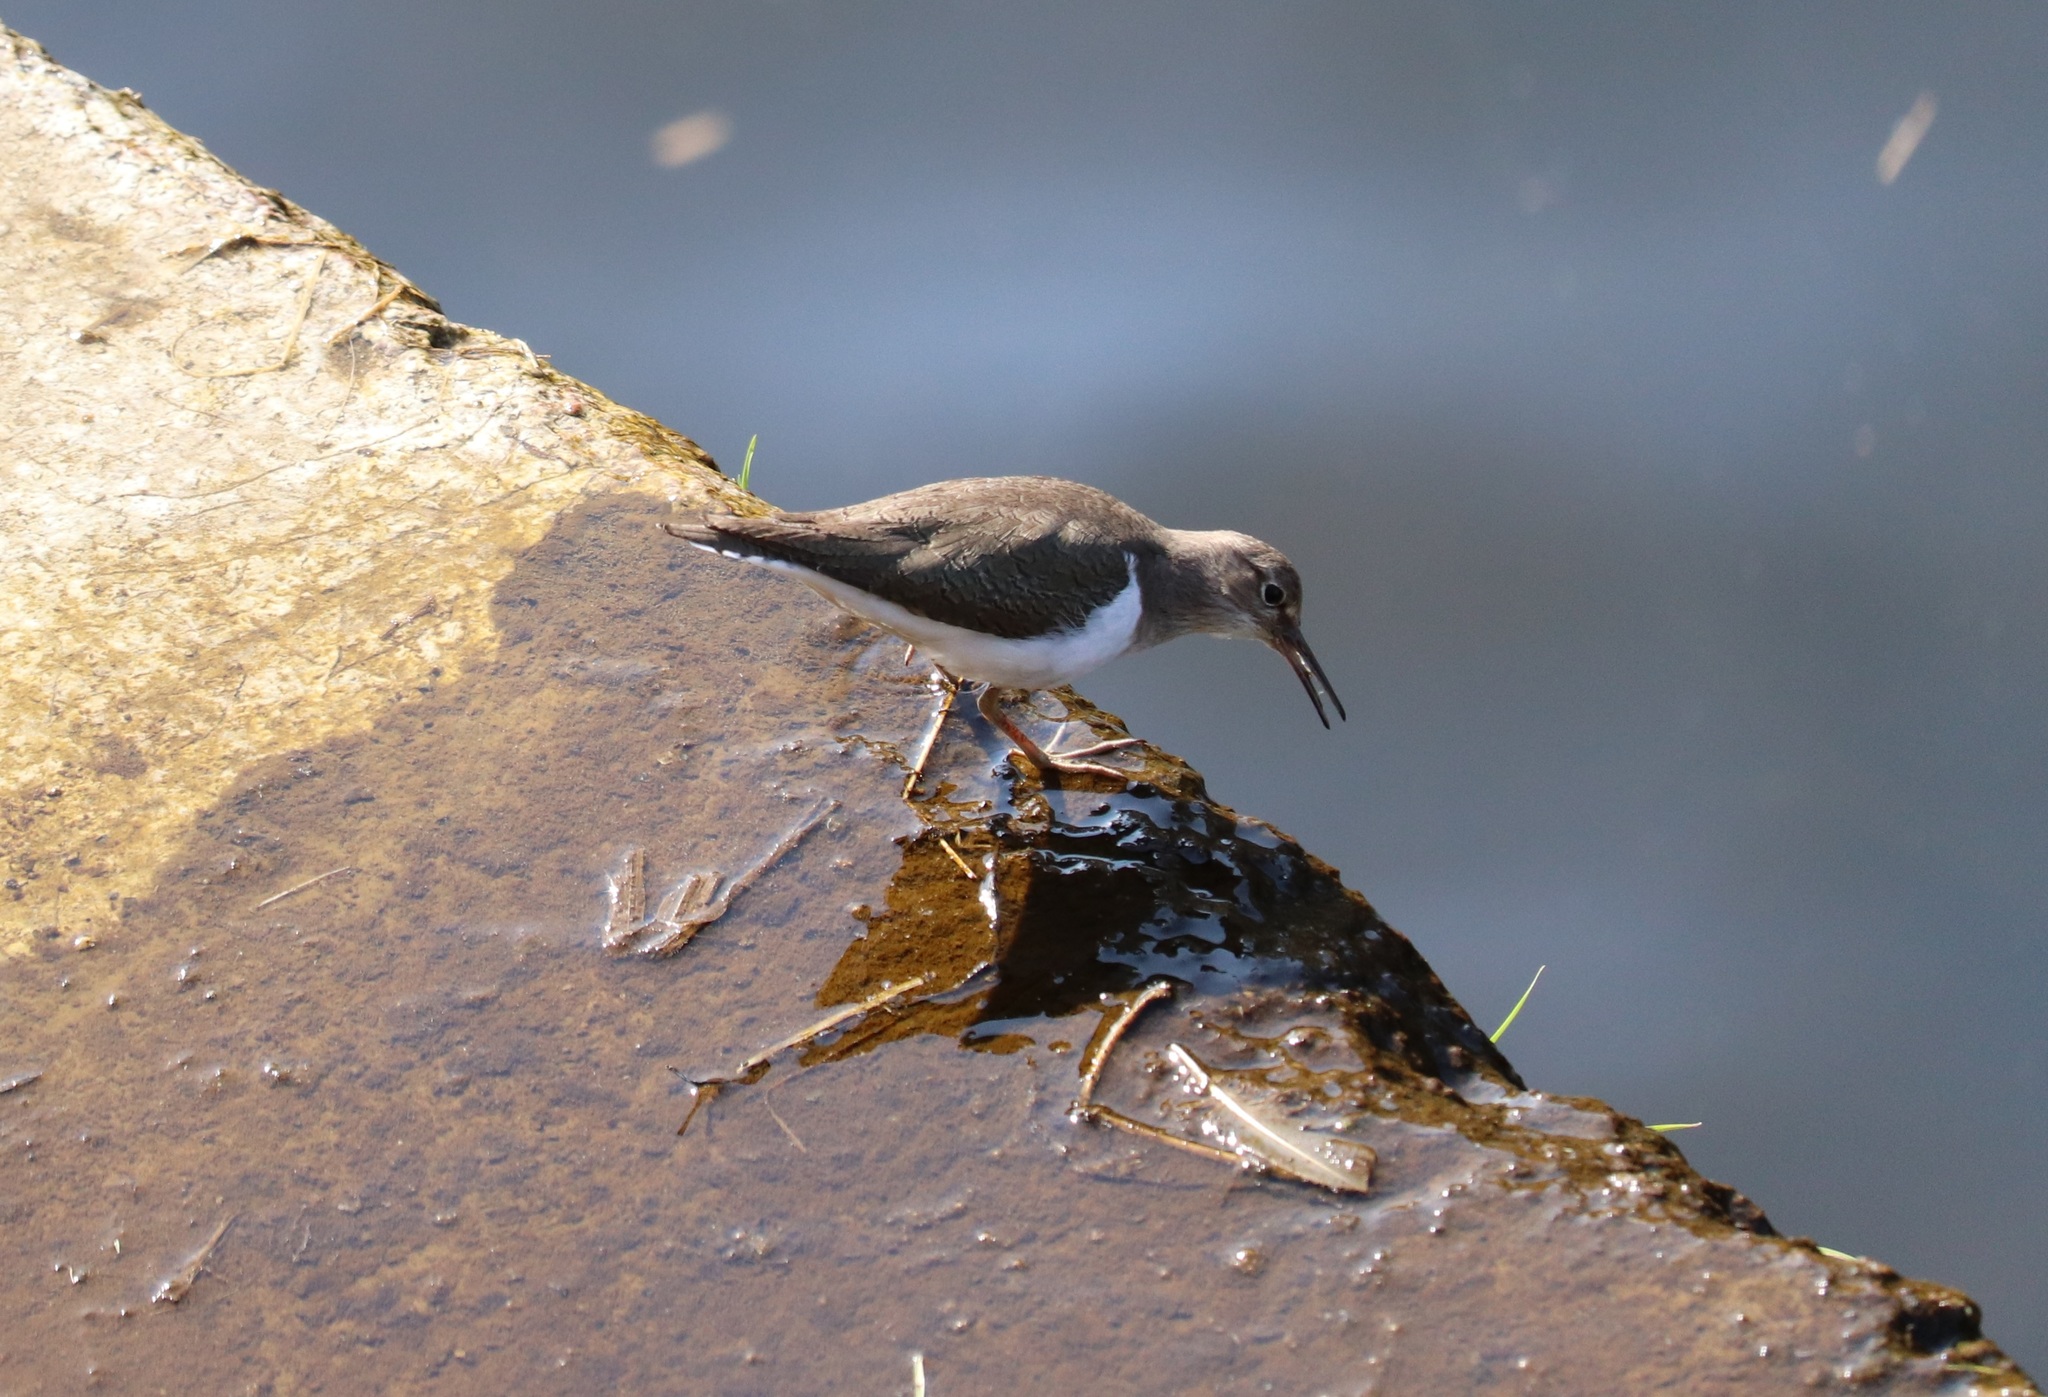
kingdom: Animalia
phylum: Chordata
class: Aves
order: Charadriiformes
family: Scolopacidae
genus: Actitis
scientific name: Actitis hypoleucos
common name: Common sandpiper
